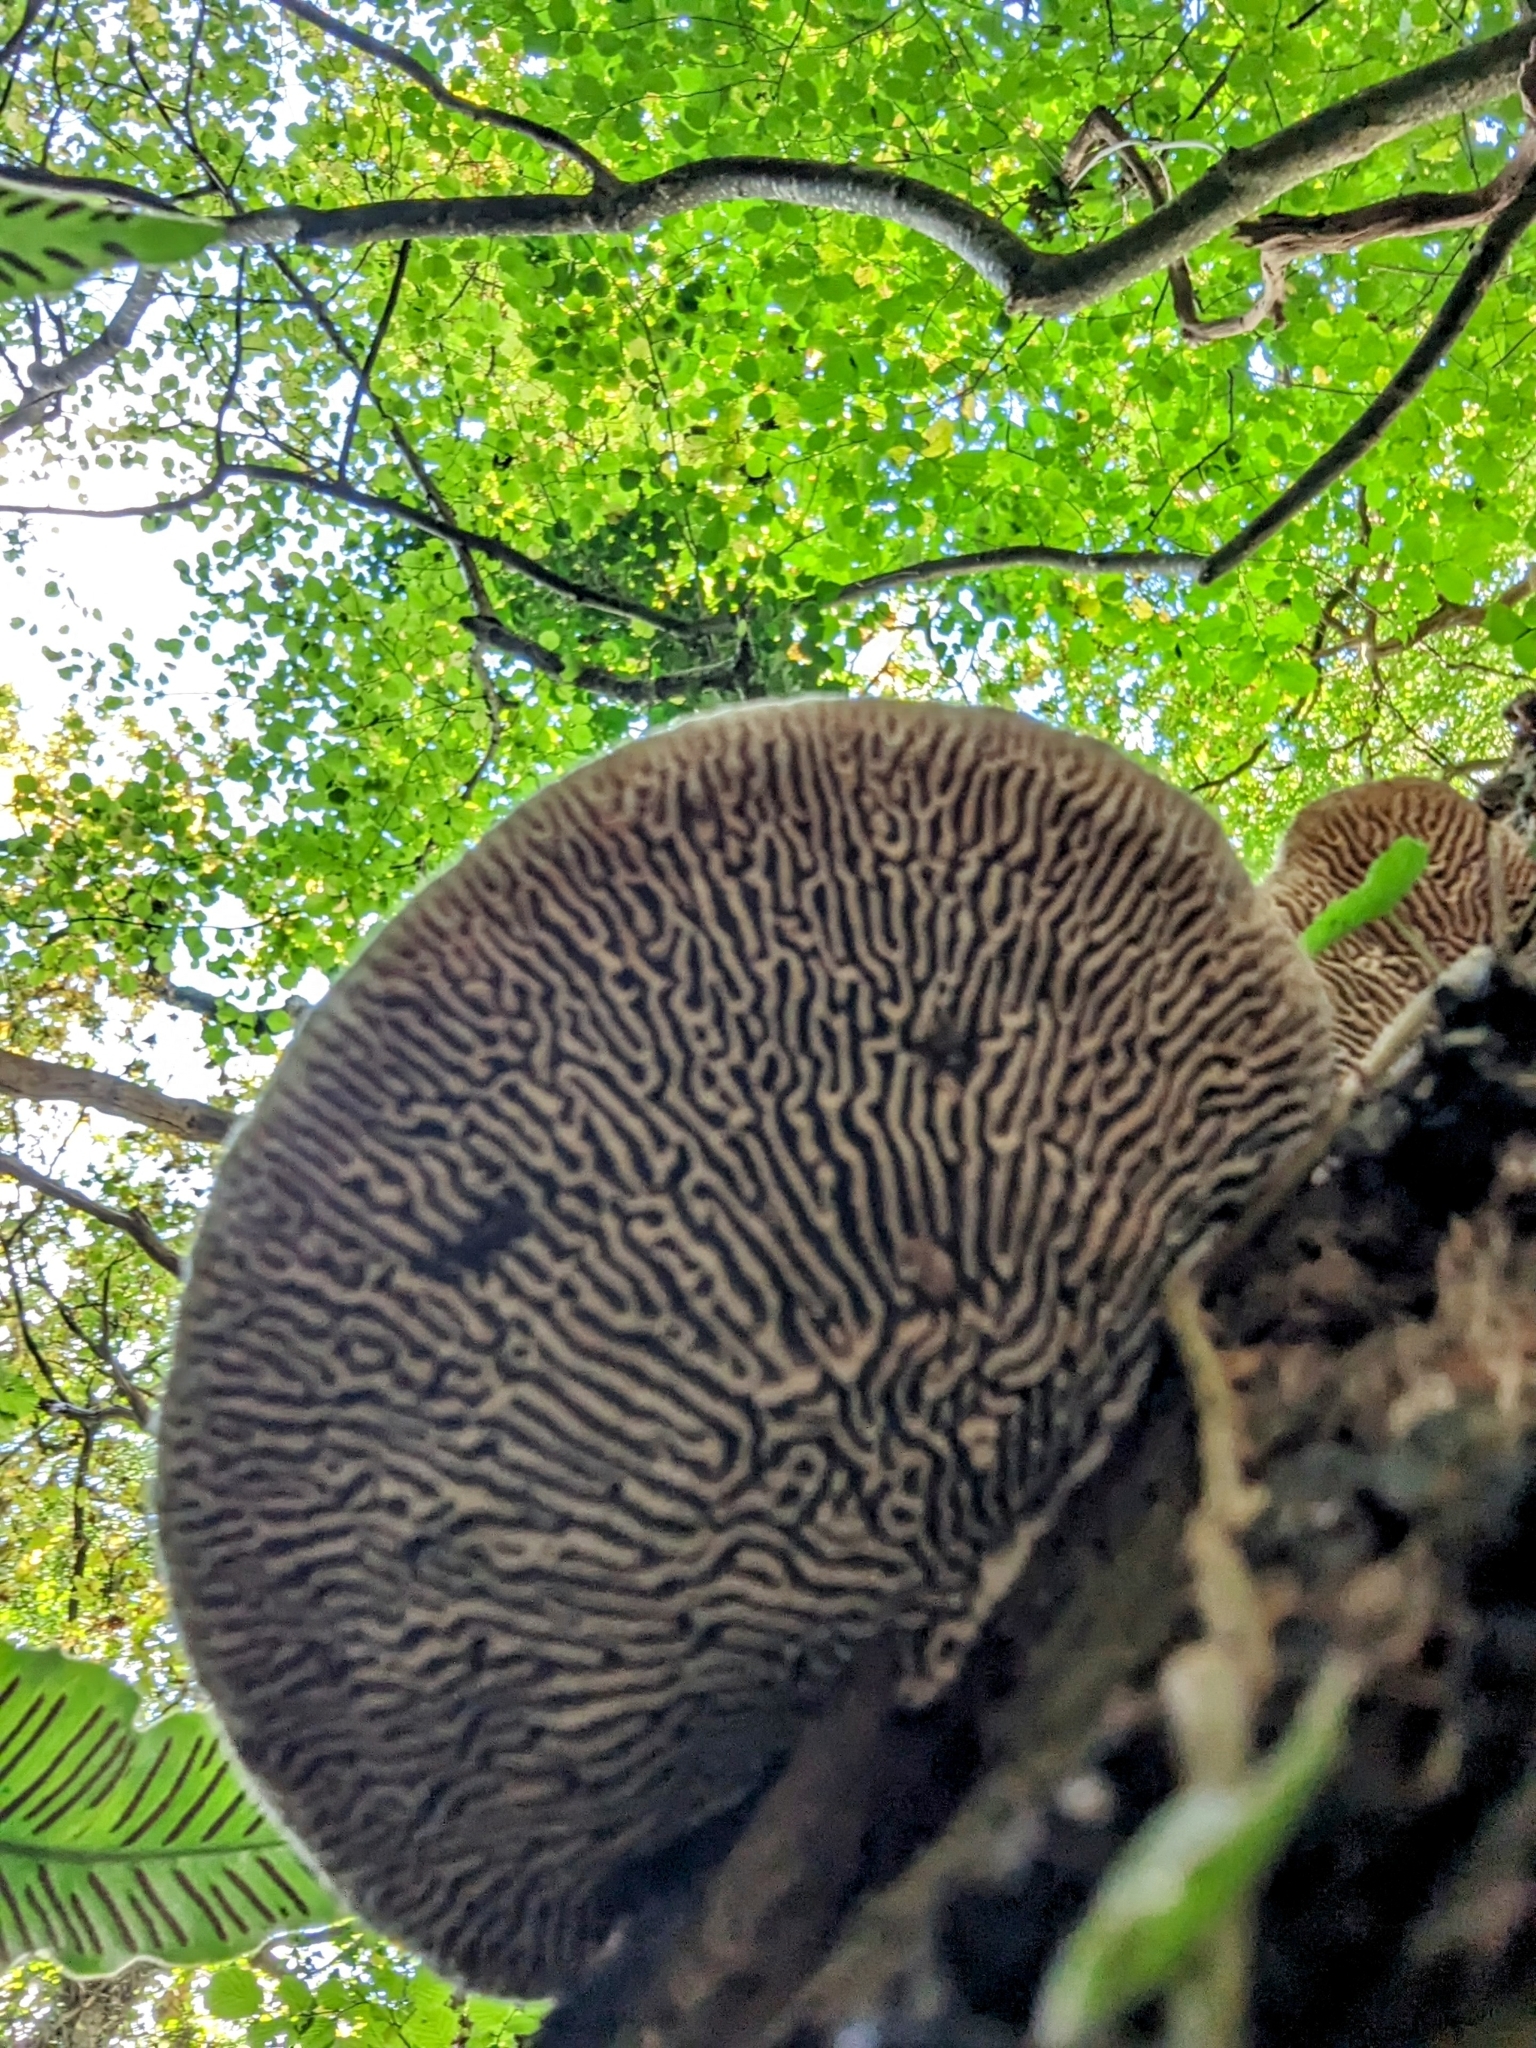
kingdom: Fungi
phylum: Basidiomycota
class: Agaricomycetes
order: Polyporales
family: Fomitopsidaceae
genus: Fomitopsis
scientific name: Fomitopsis
